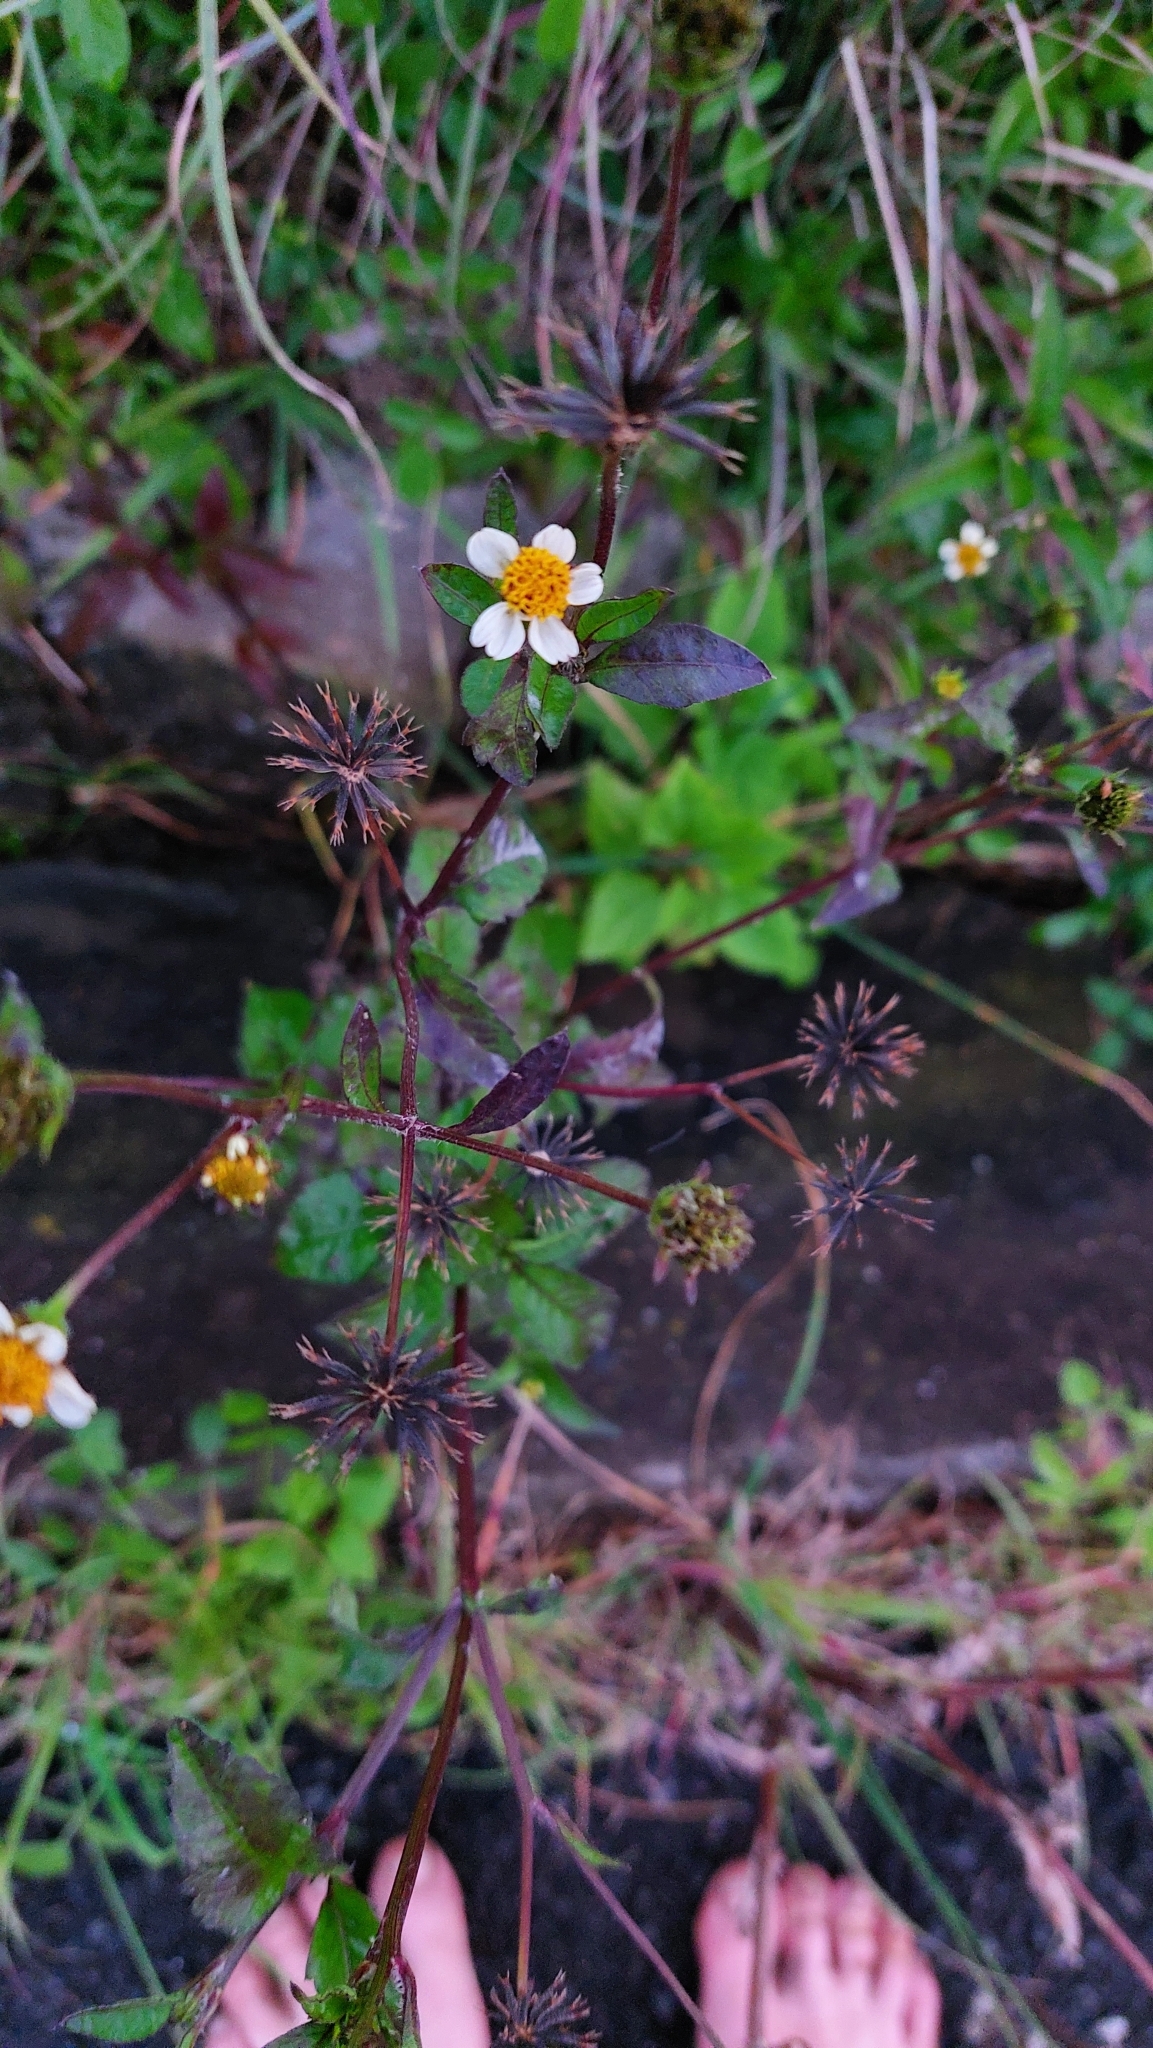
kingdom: Plantae
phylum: Tracheophyta
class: Magnoliopsida
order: Asterales
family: Asteraceae
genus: Bidens
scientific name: Bidens pilosa
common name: Black-jack
